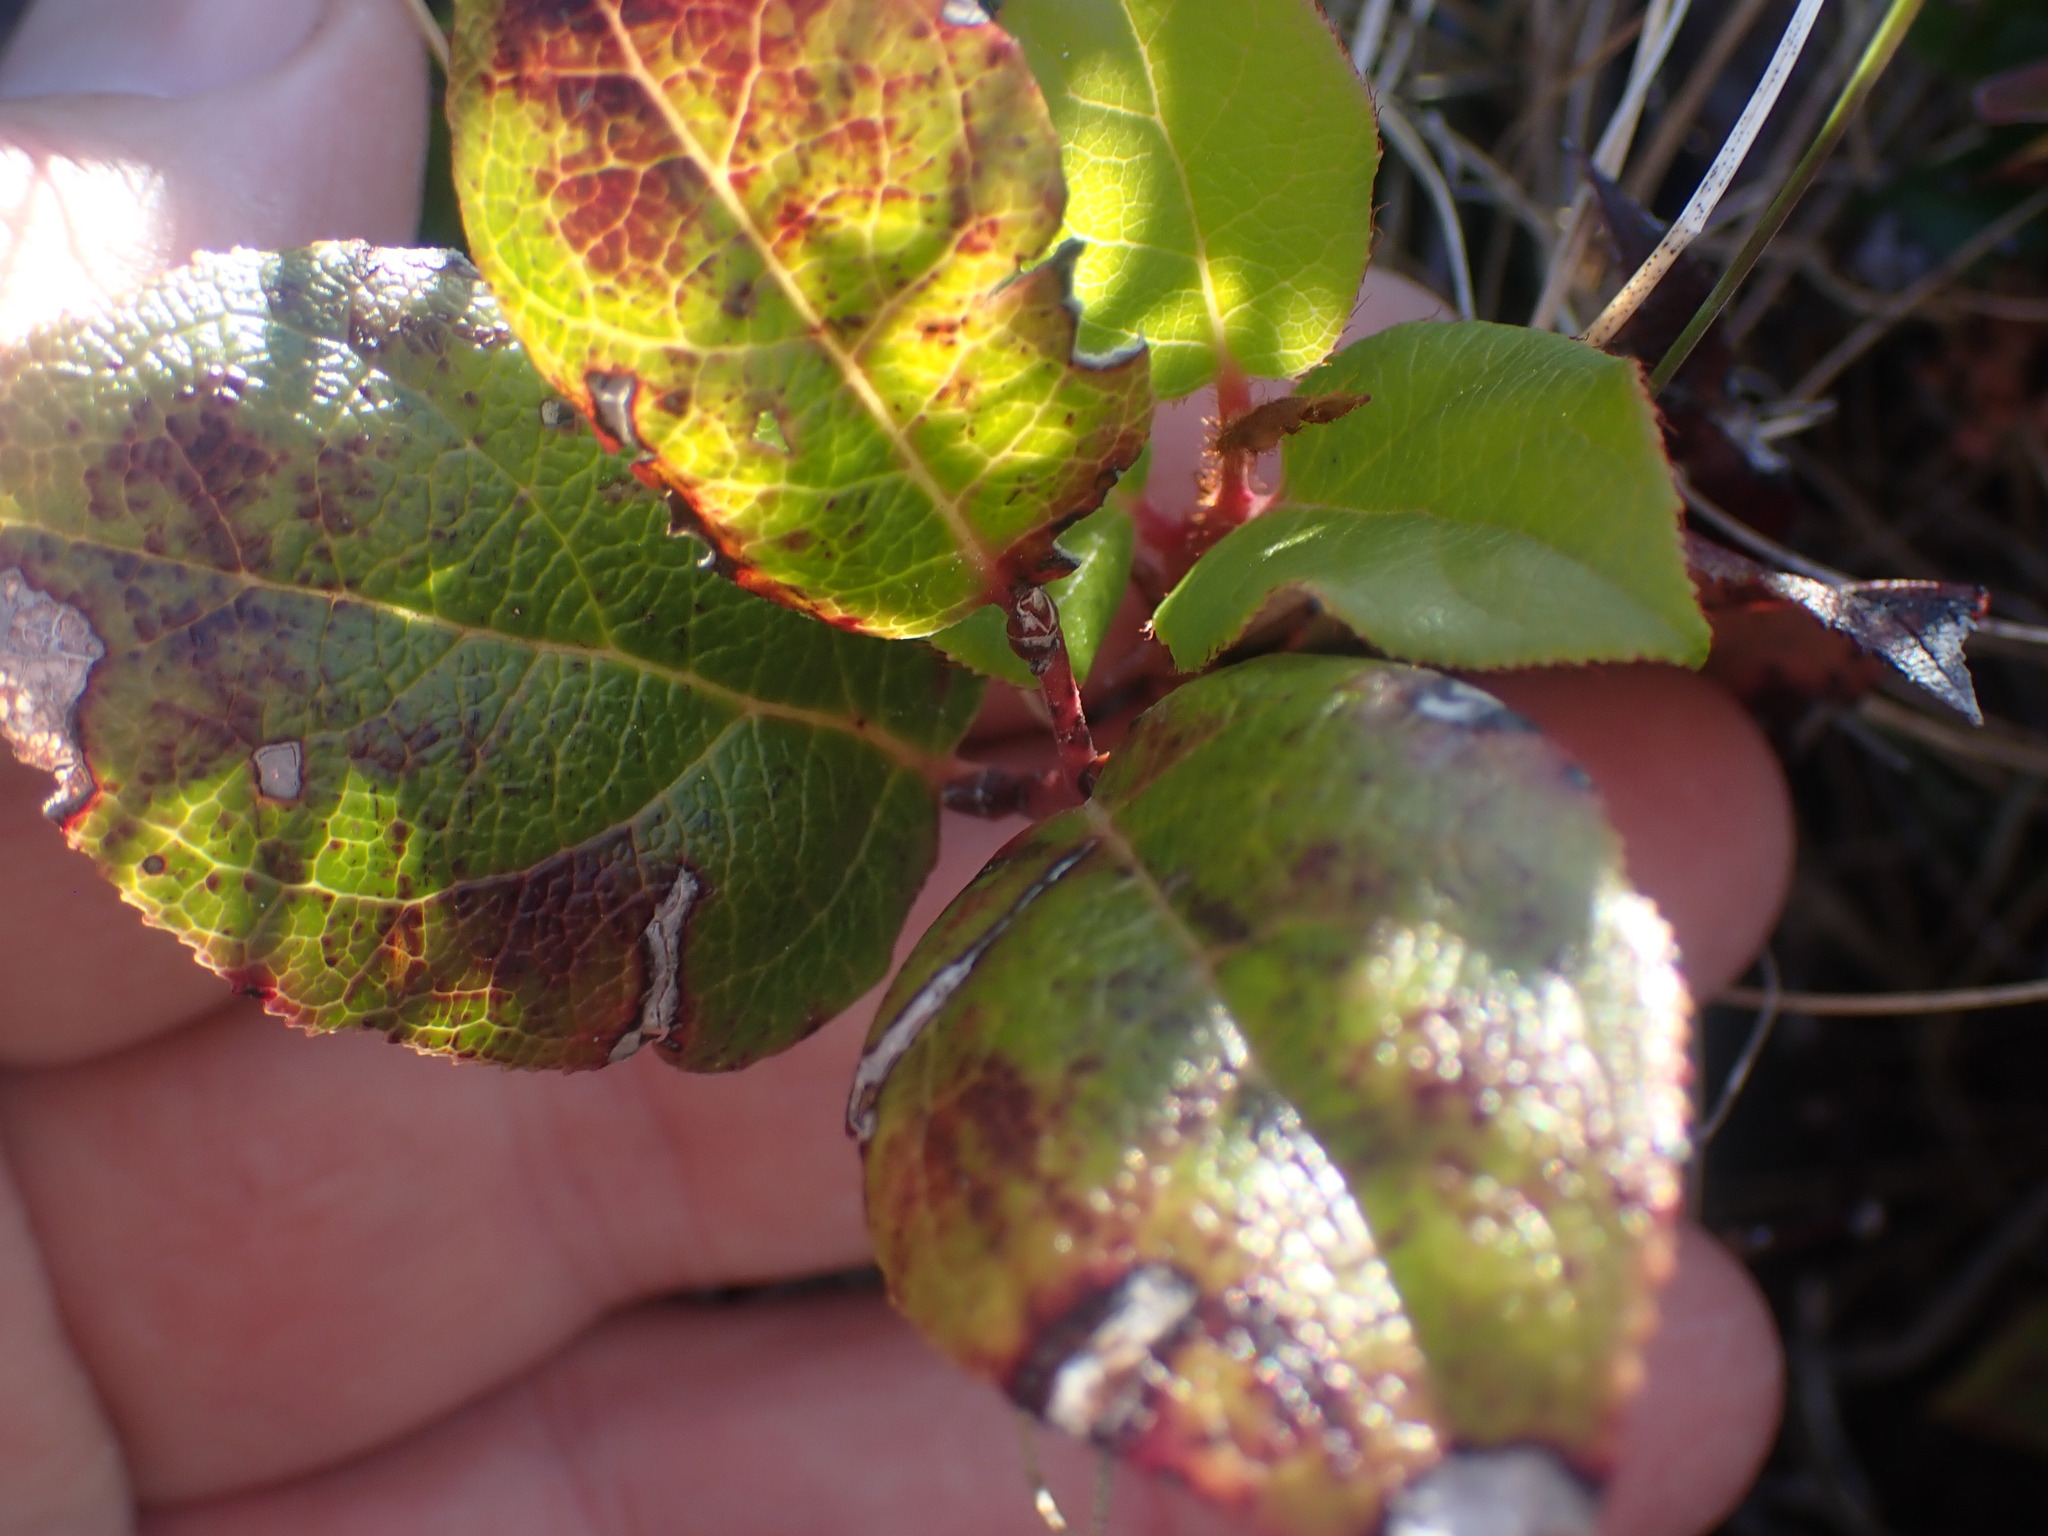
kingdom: Plantae
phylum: Tracheophyta
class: Magnoliopsida
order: Ericales
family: Ericaceae
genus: Gaultheria
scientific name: Gaultheria shallon
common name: Shallon
